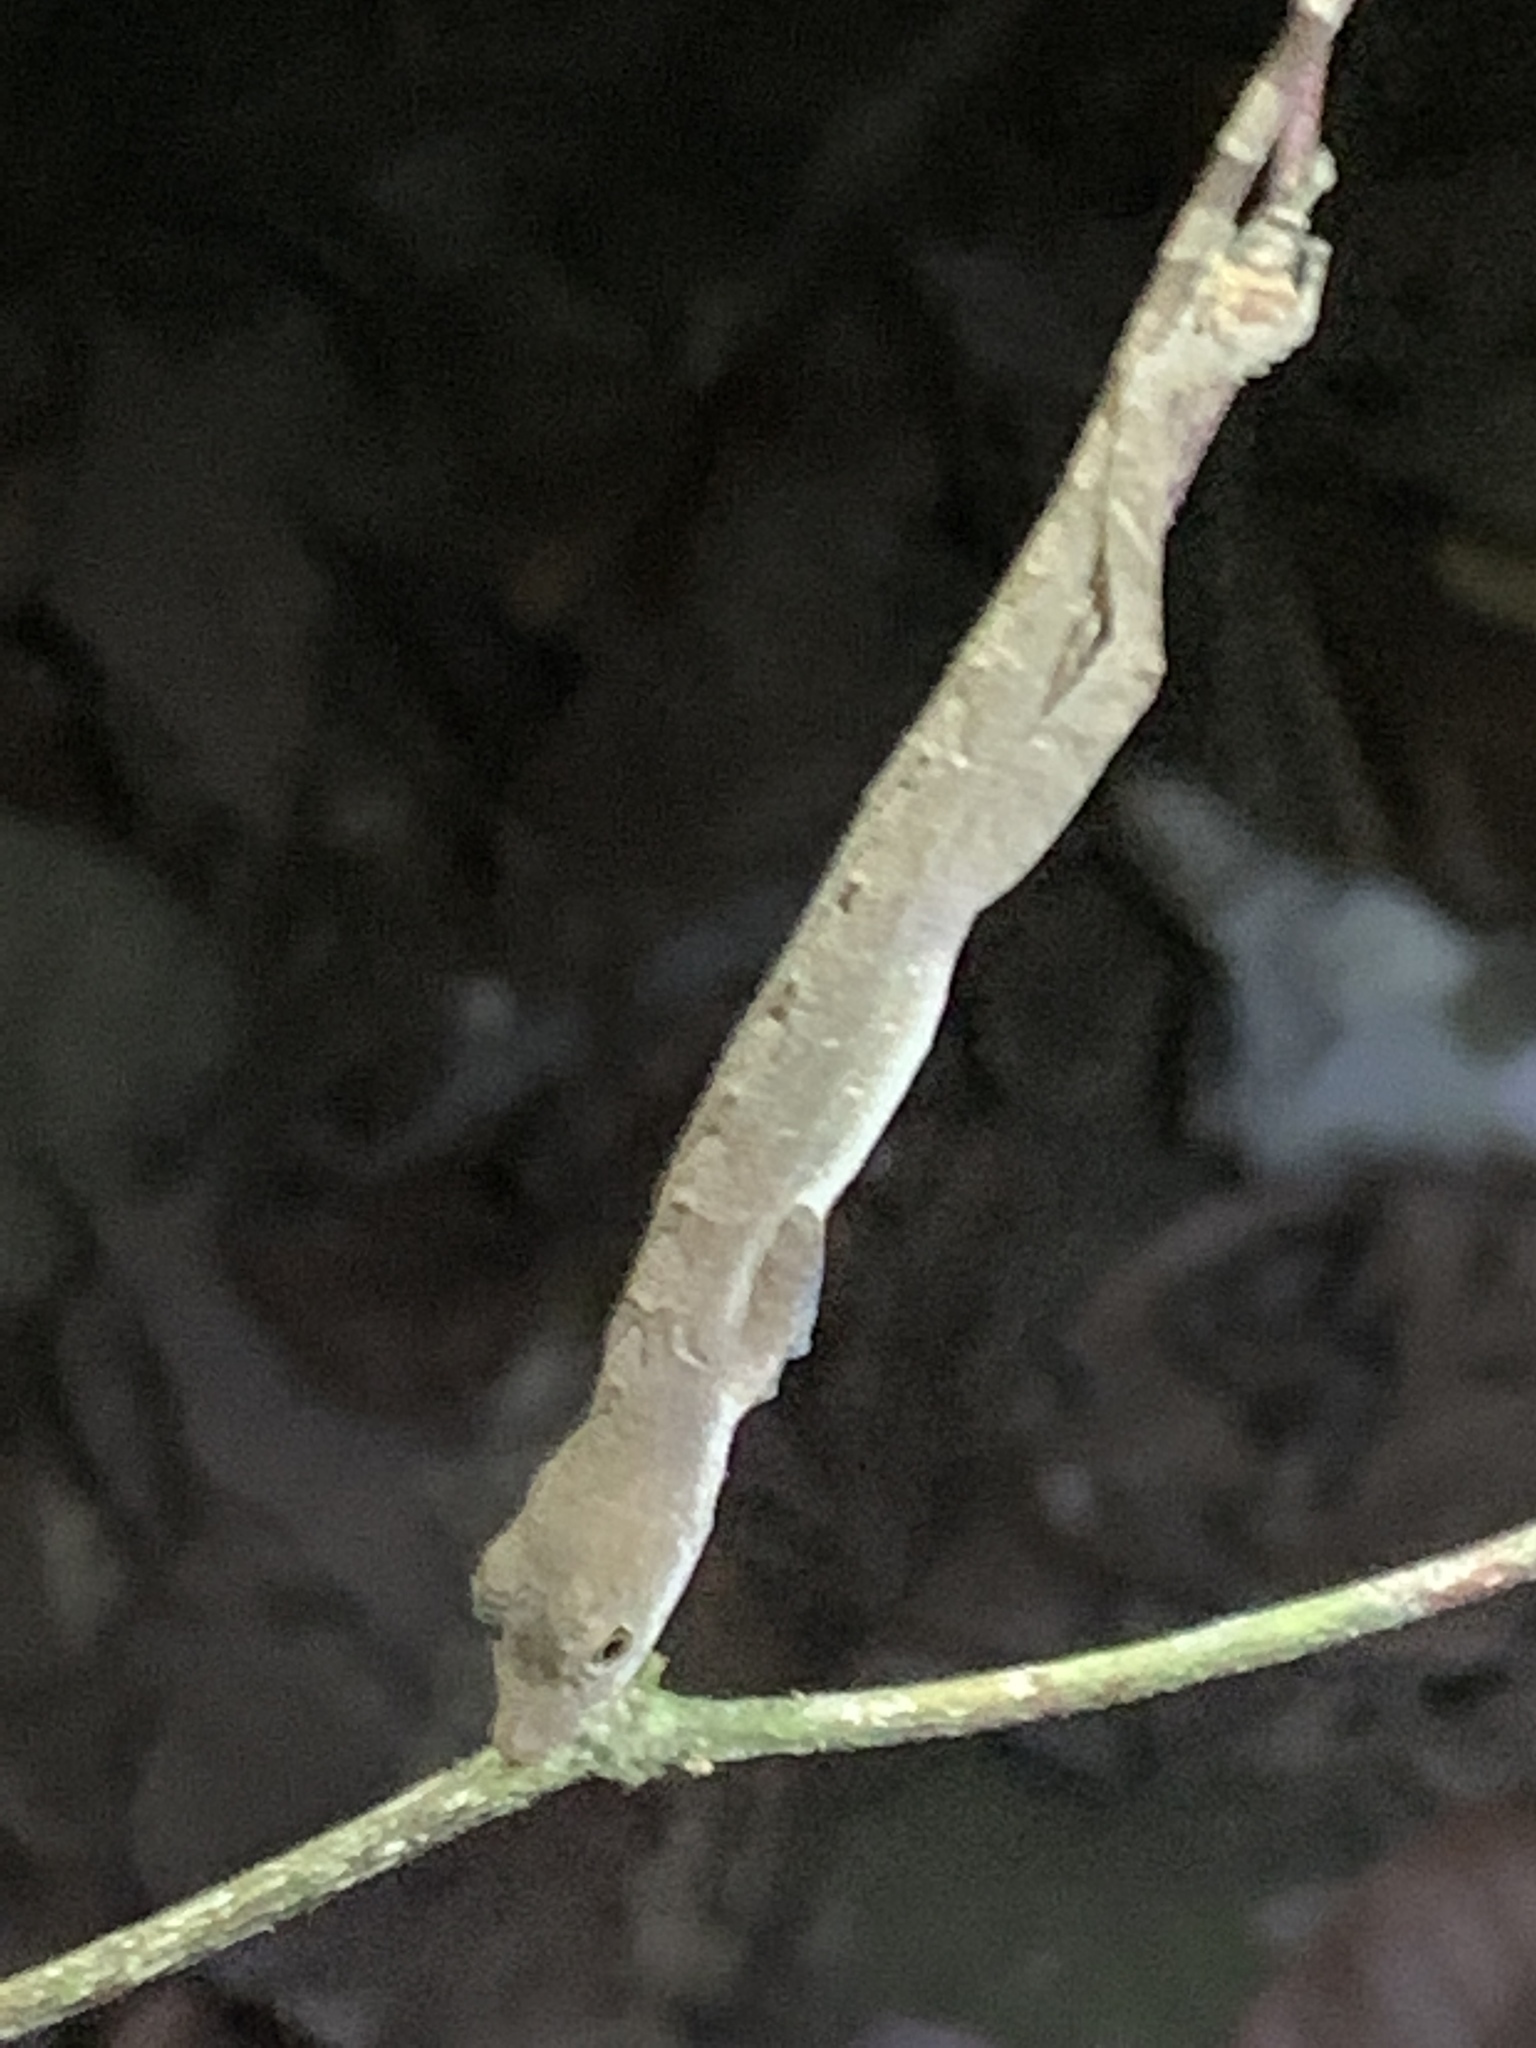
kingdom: Animalia
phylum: Chordata
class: Squamata
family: Dactyloidae
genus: Anolis
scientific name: Anolis apletophallus
